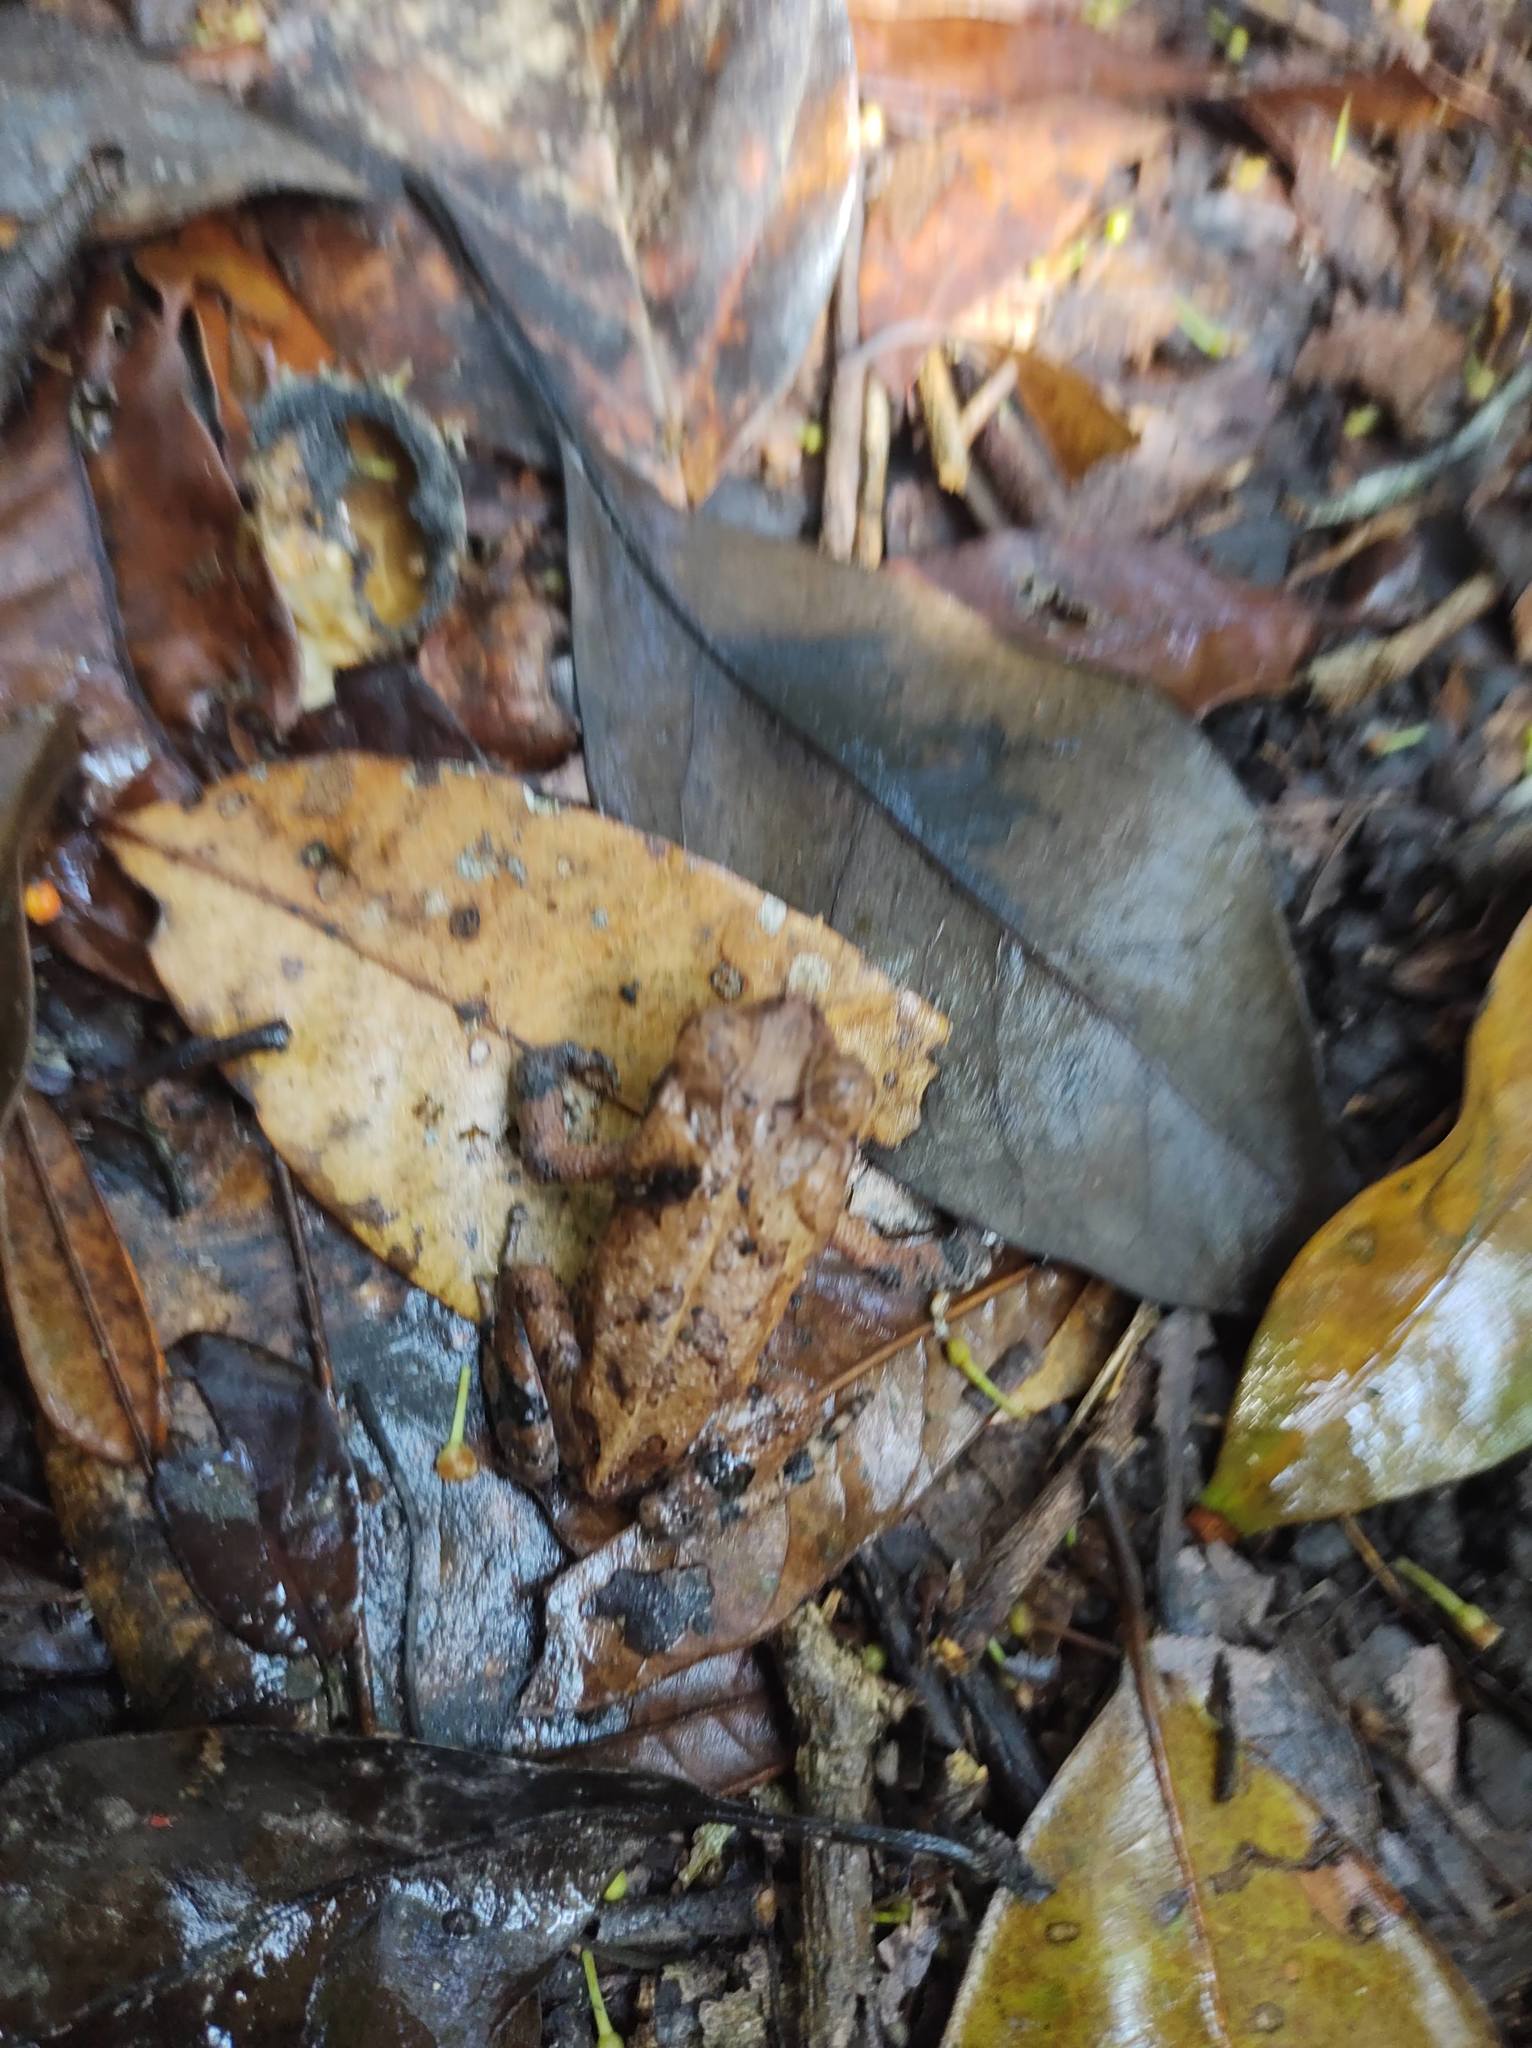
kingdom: Animalia
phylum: Chordata
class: Amphibia
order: Anura
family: Bufonidae
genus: Incilius
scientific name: Incilius valliceps
